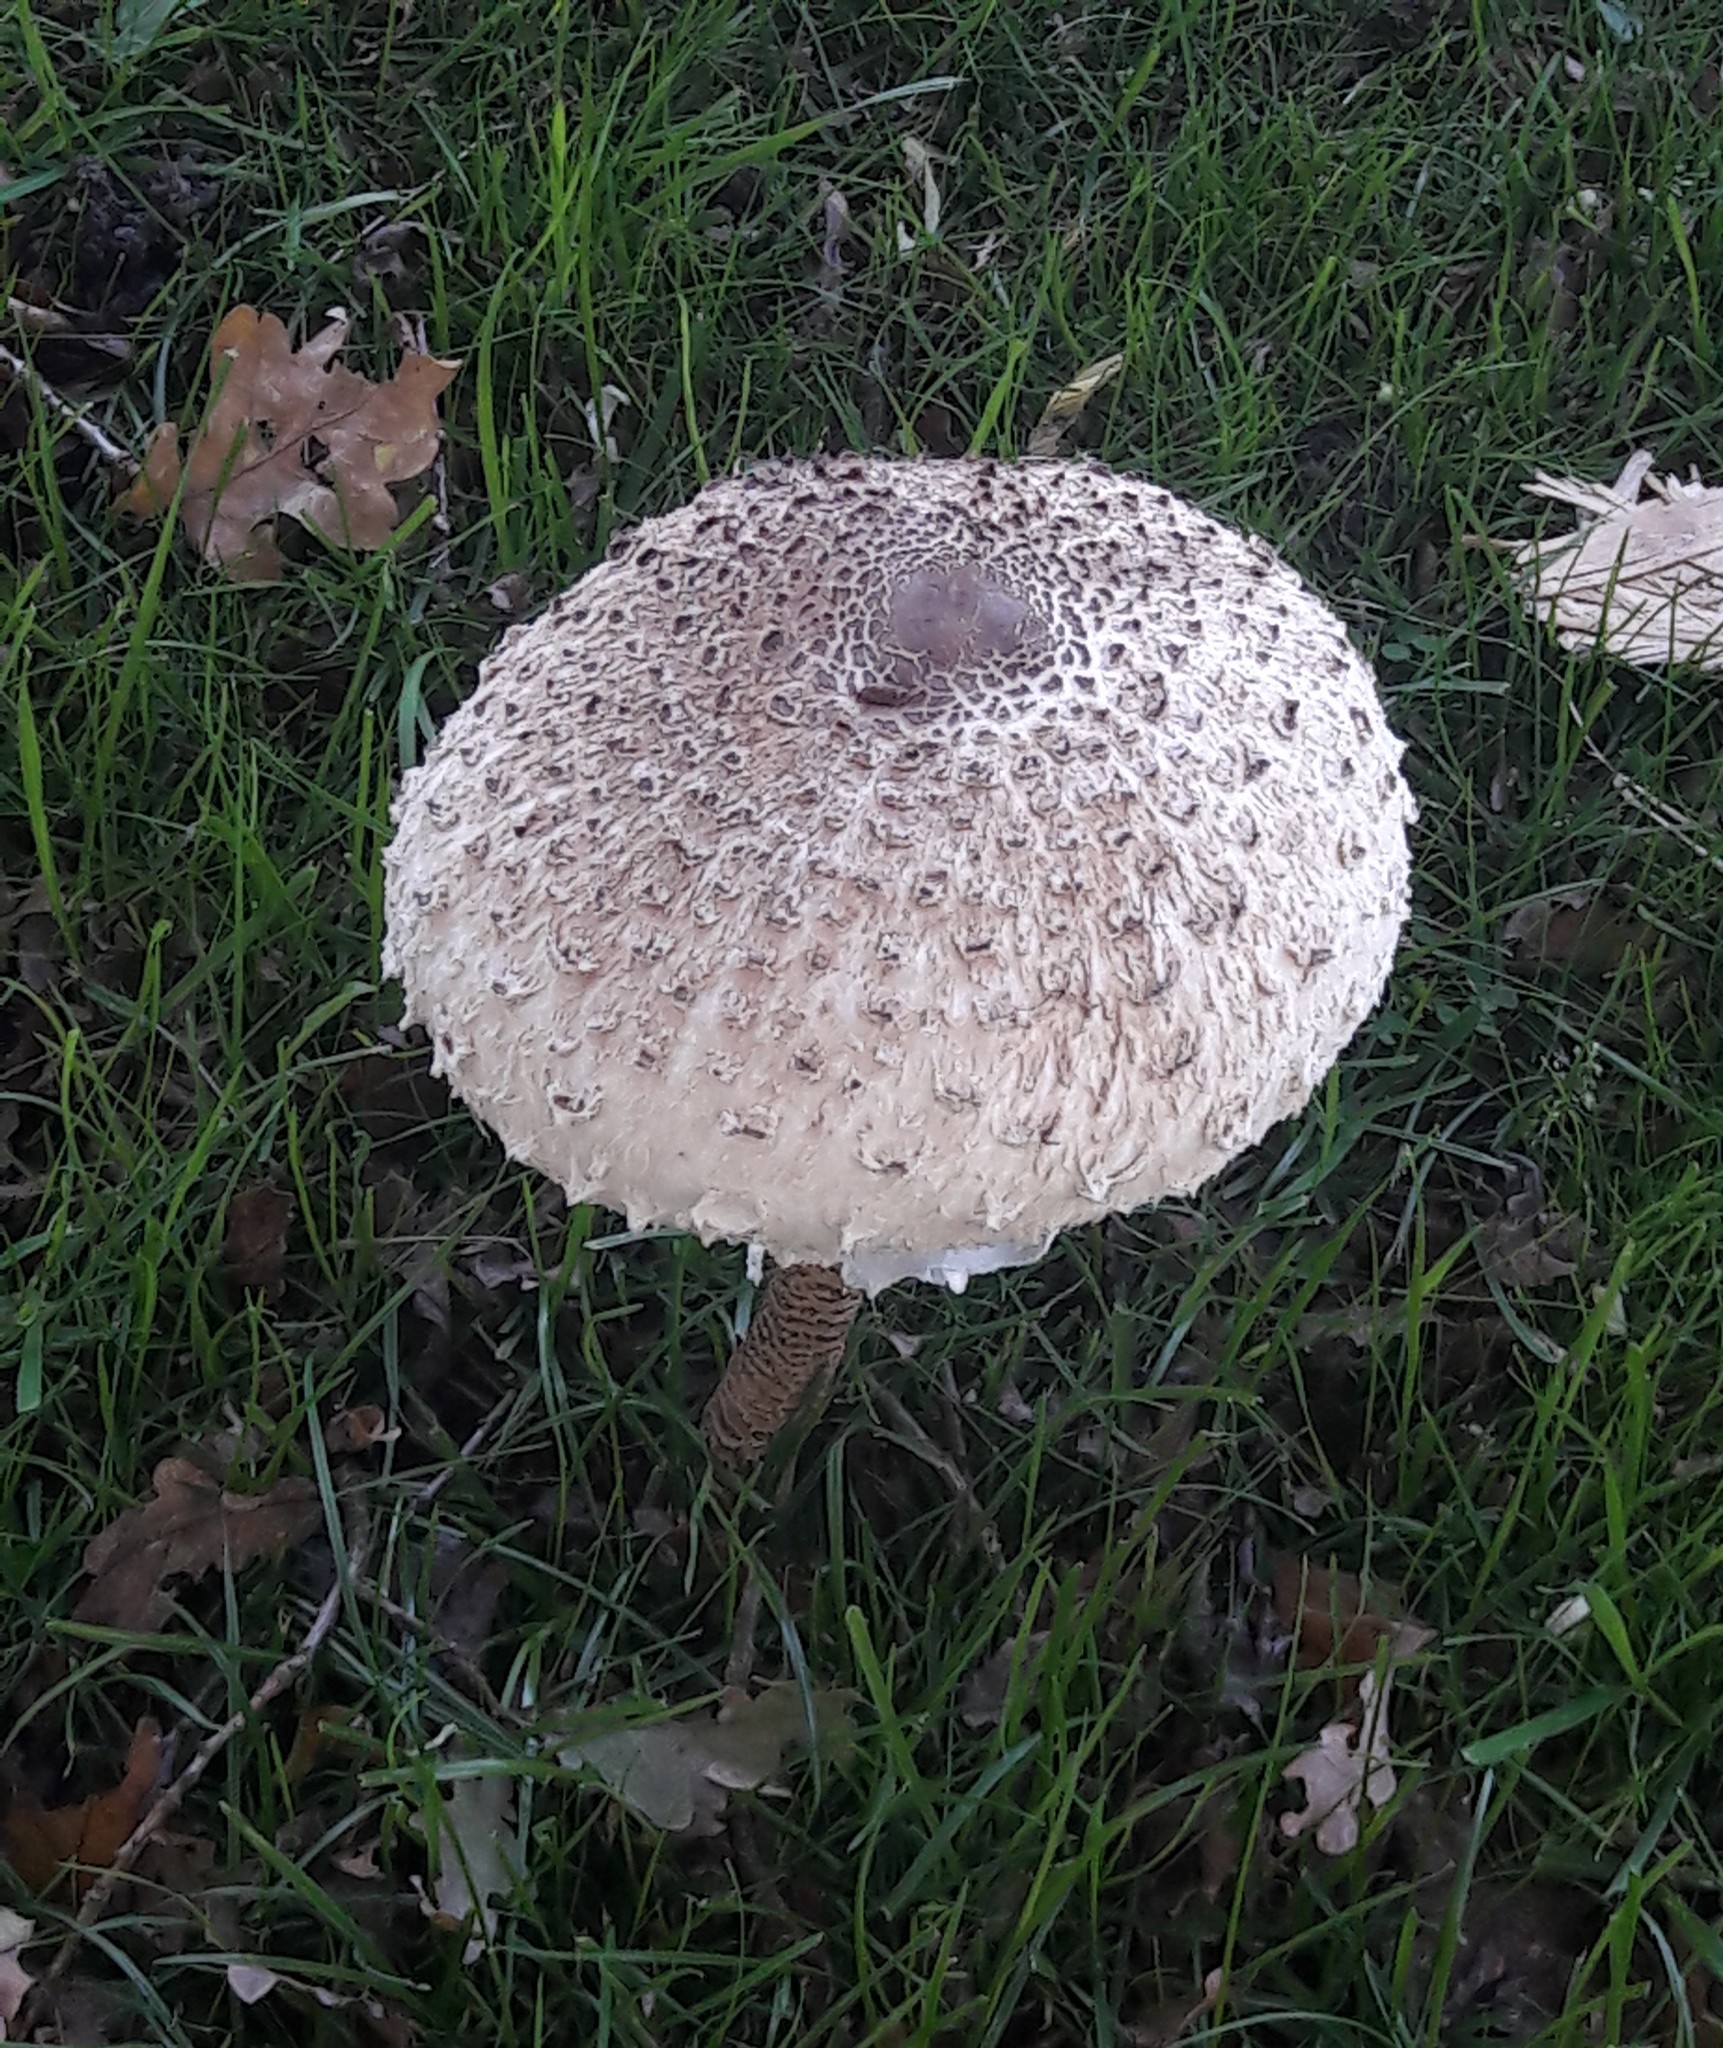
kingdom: Fungi
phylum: Basidiomycota
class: Agaricomycetes
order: Agaricales
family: Agaricaceae
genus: Macrolepiota
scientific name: Macrolepiota procera
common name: Parasol
